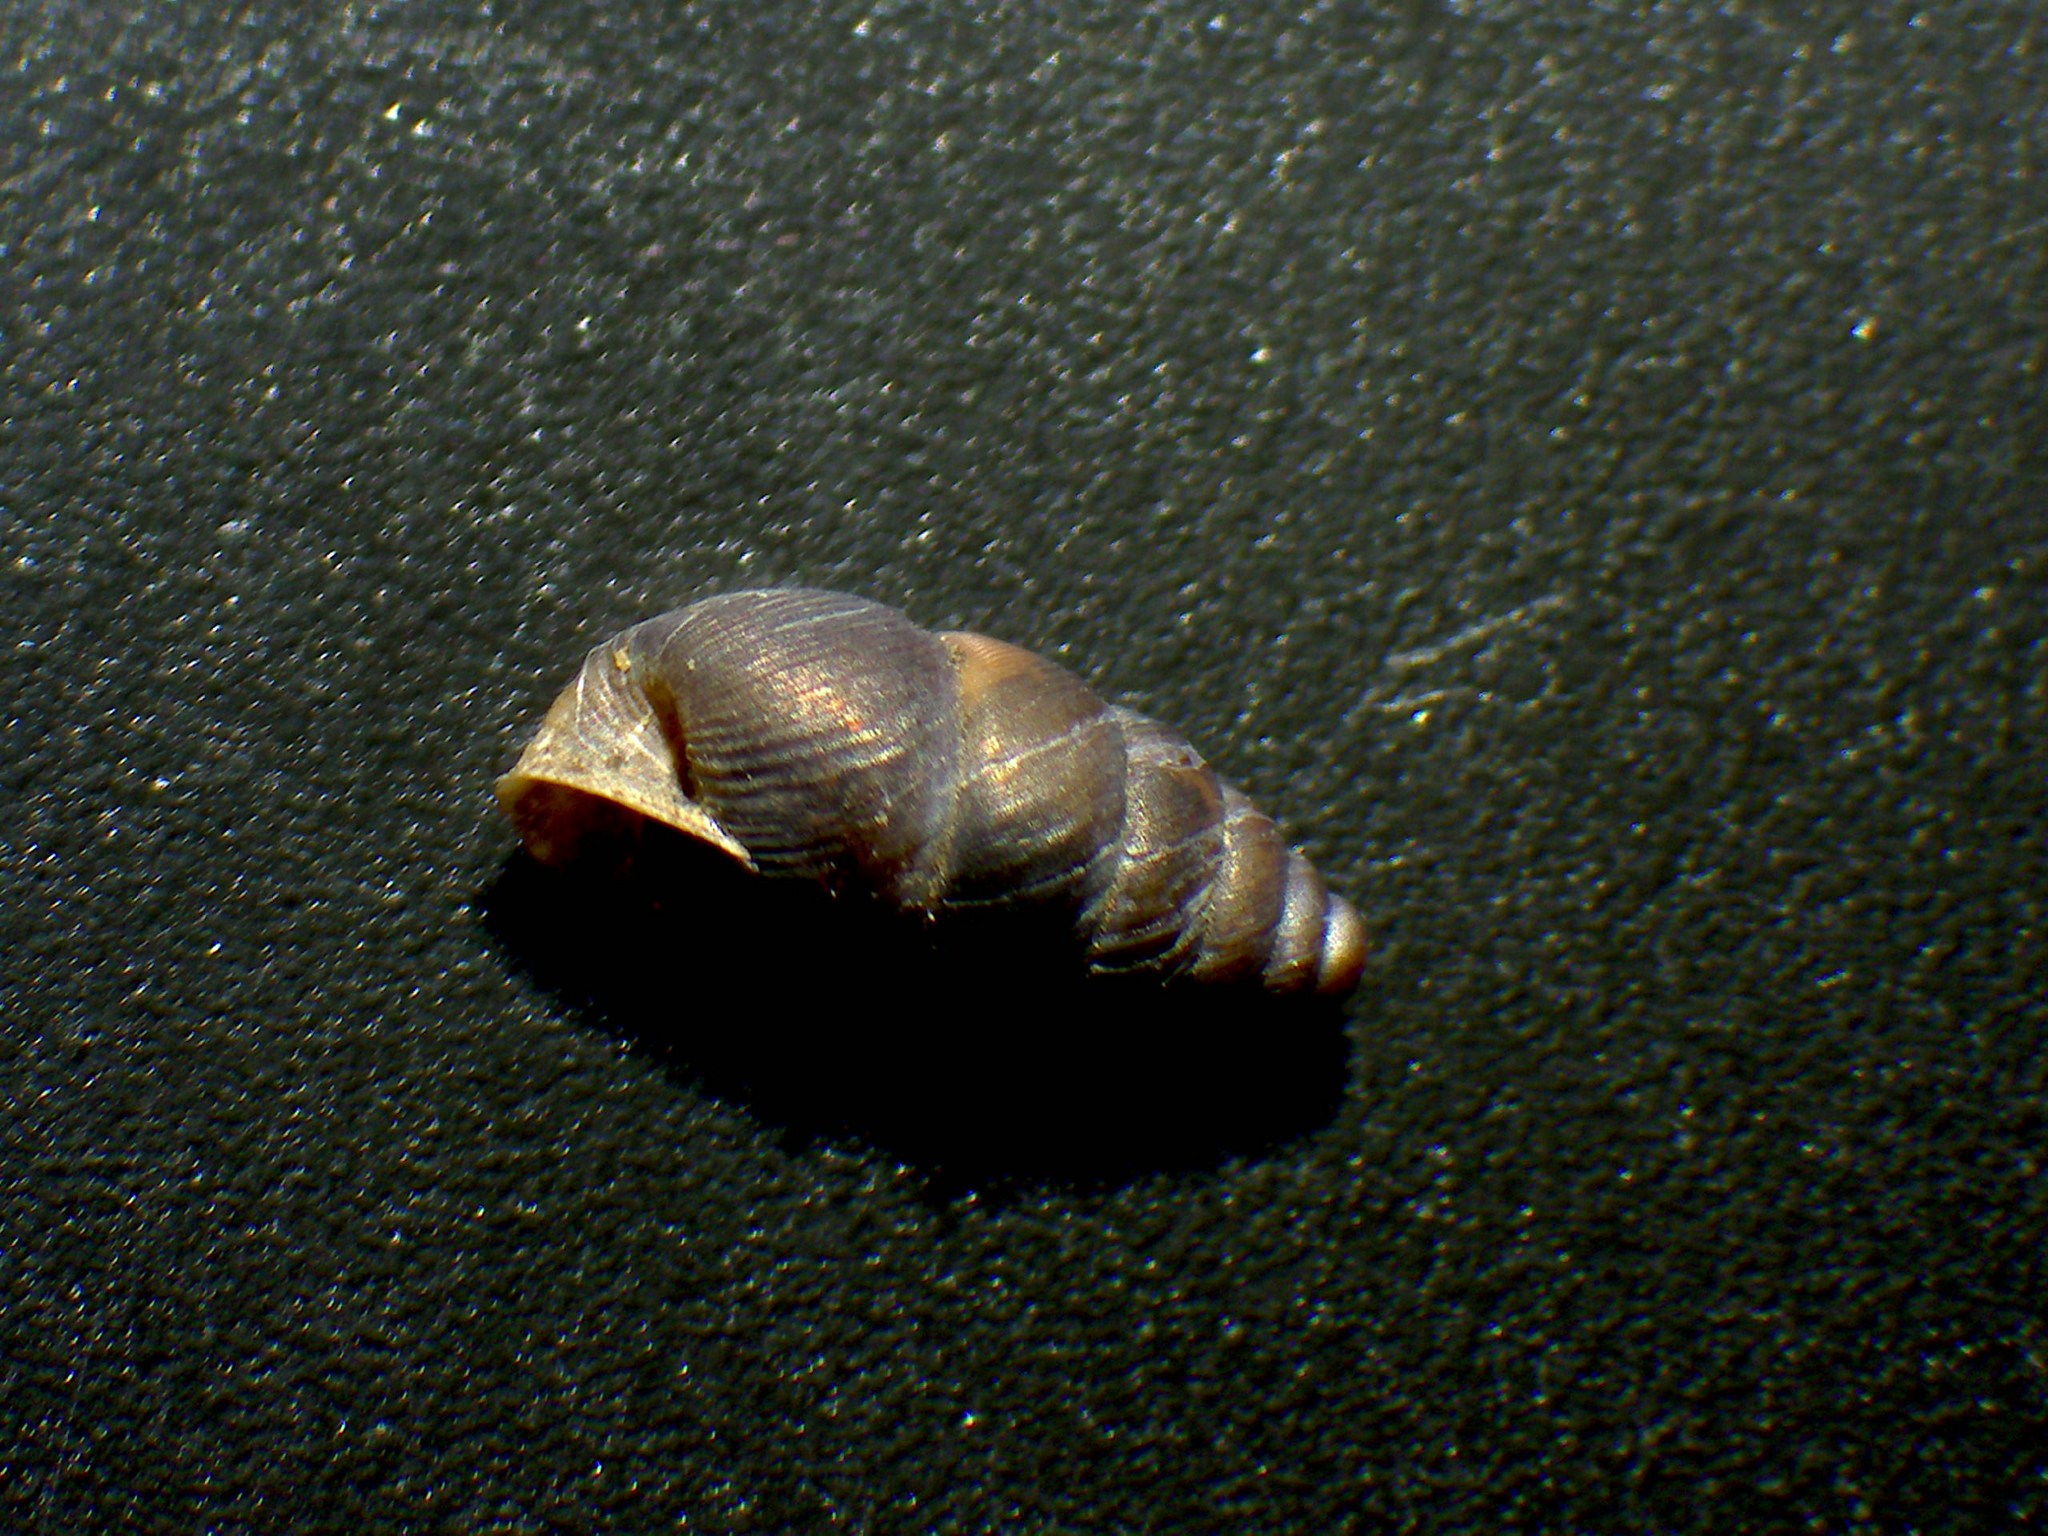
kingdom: Animalia
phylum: Mollusca
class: Gastropoda
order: Stylommatophora
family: Chondrinidae
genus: Chondrina
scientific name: Chondrina avenacea
